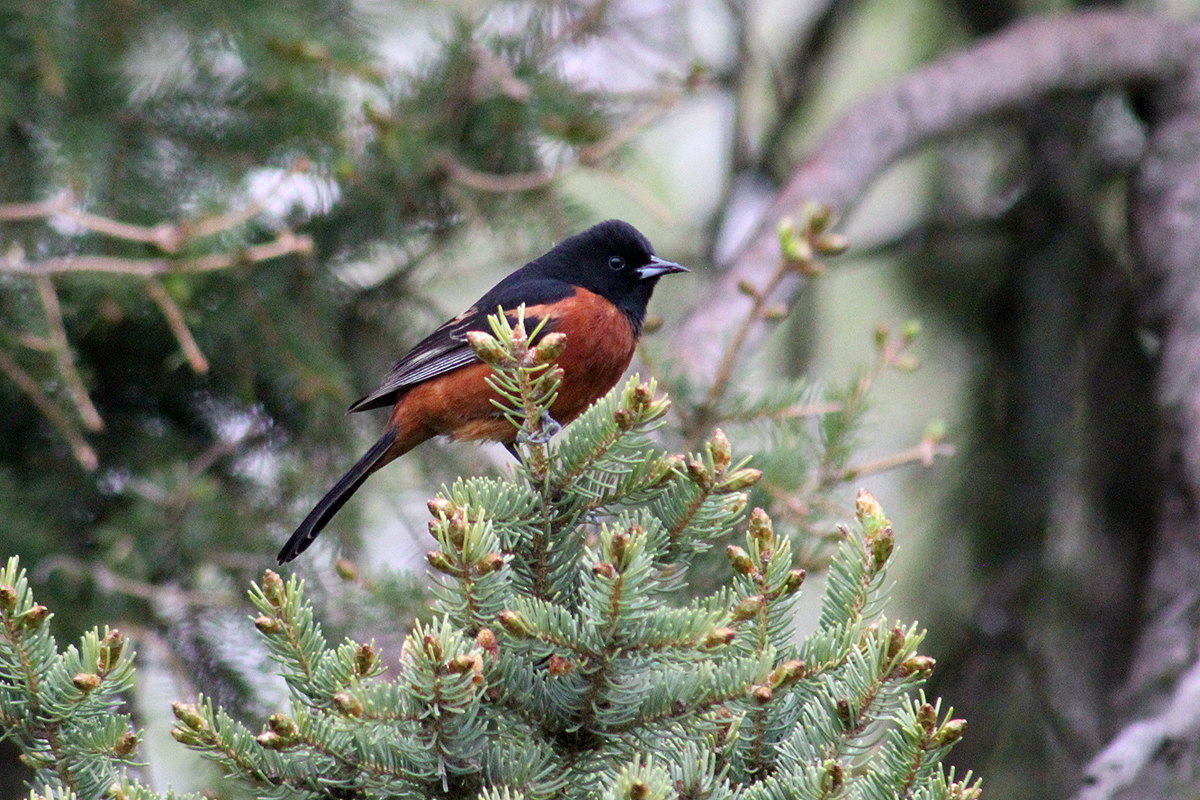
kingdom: Animalia
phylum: Chordata
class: Aves
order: Passeriformes
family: Icteridae
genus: Icterus
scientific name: Icterus spurius
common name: Orchard oriole
